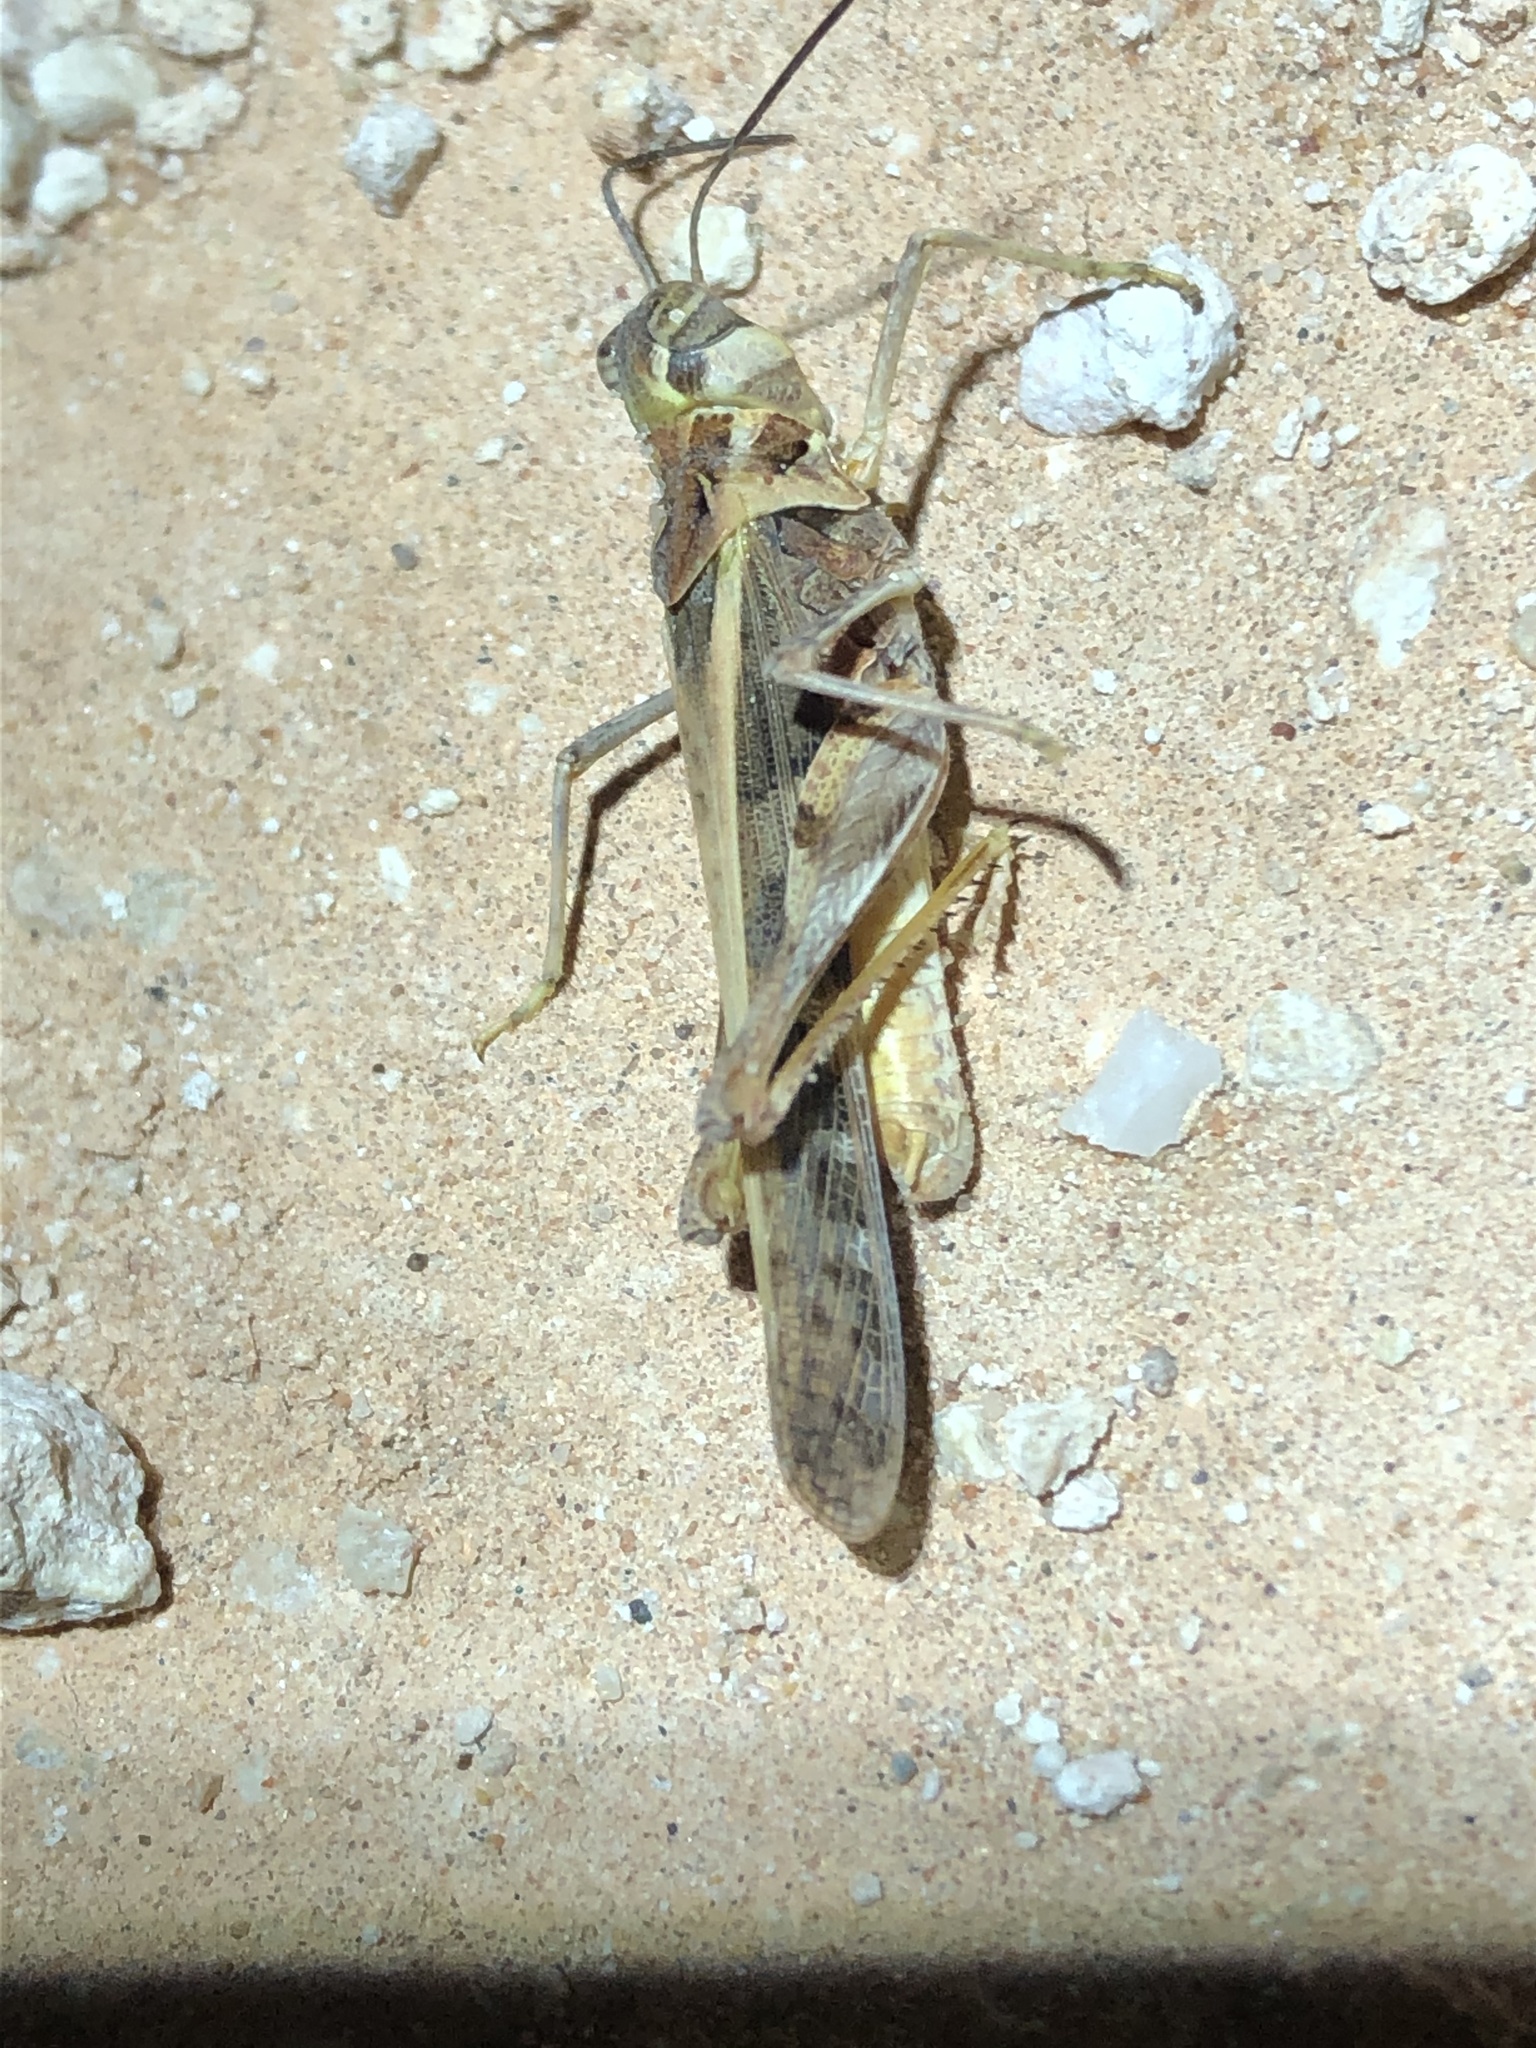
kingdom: Animalia
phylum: Arthropoda
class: Insecta
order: Orthoptera
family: Acrididae
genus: Hippopedon
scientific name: Hippopedon capito
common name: Apache grasshopper
